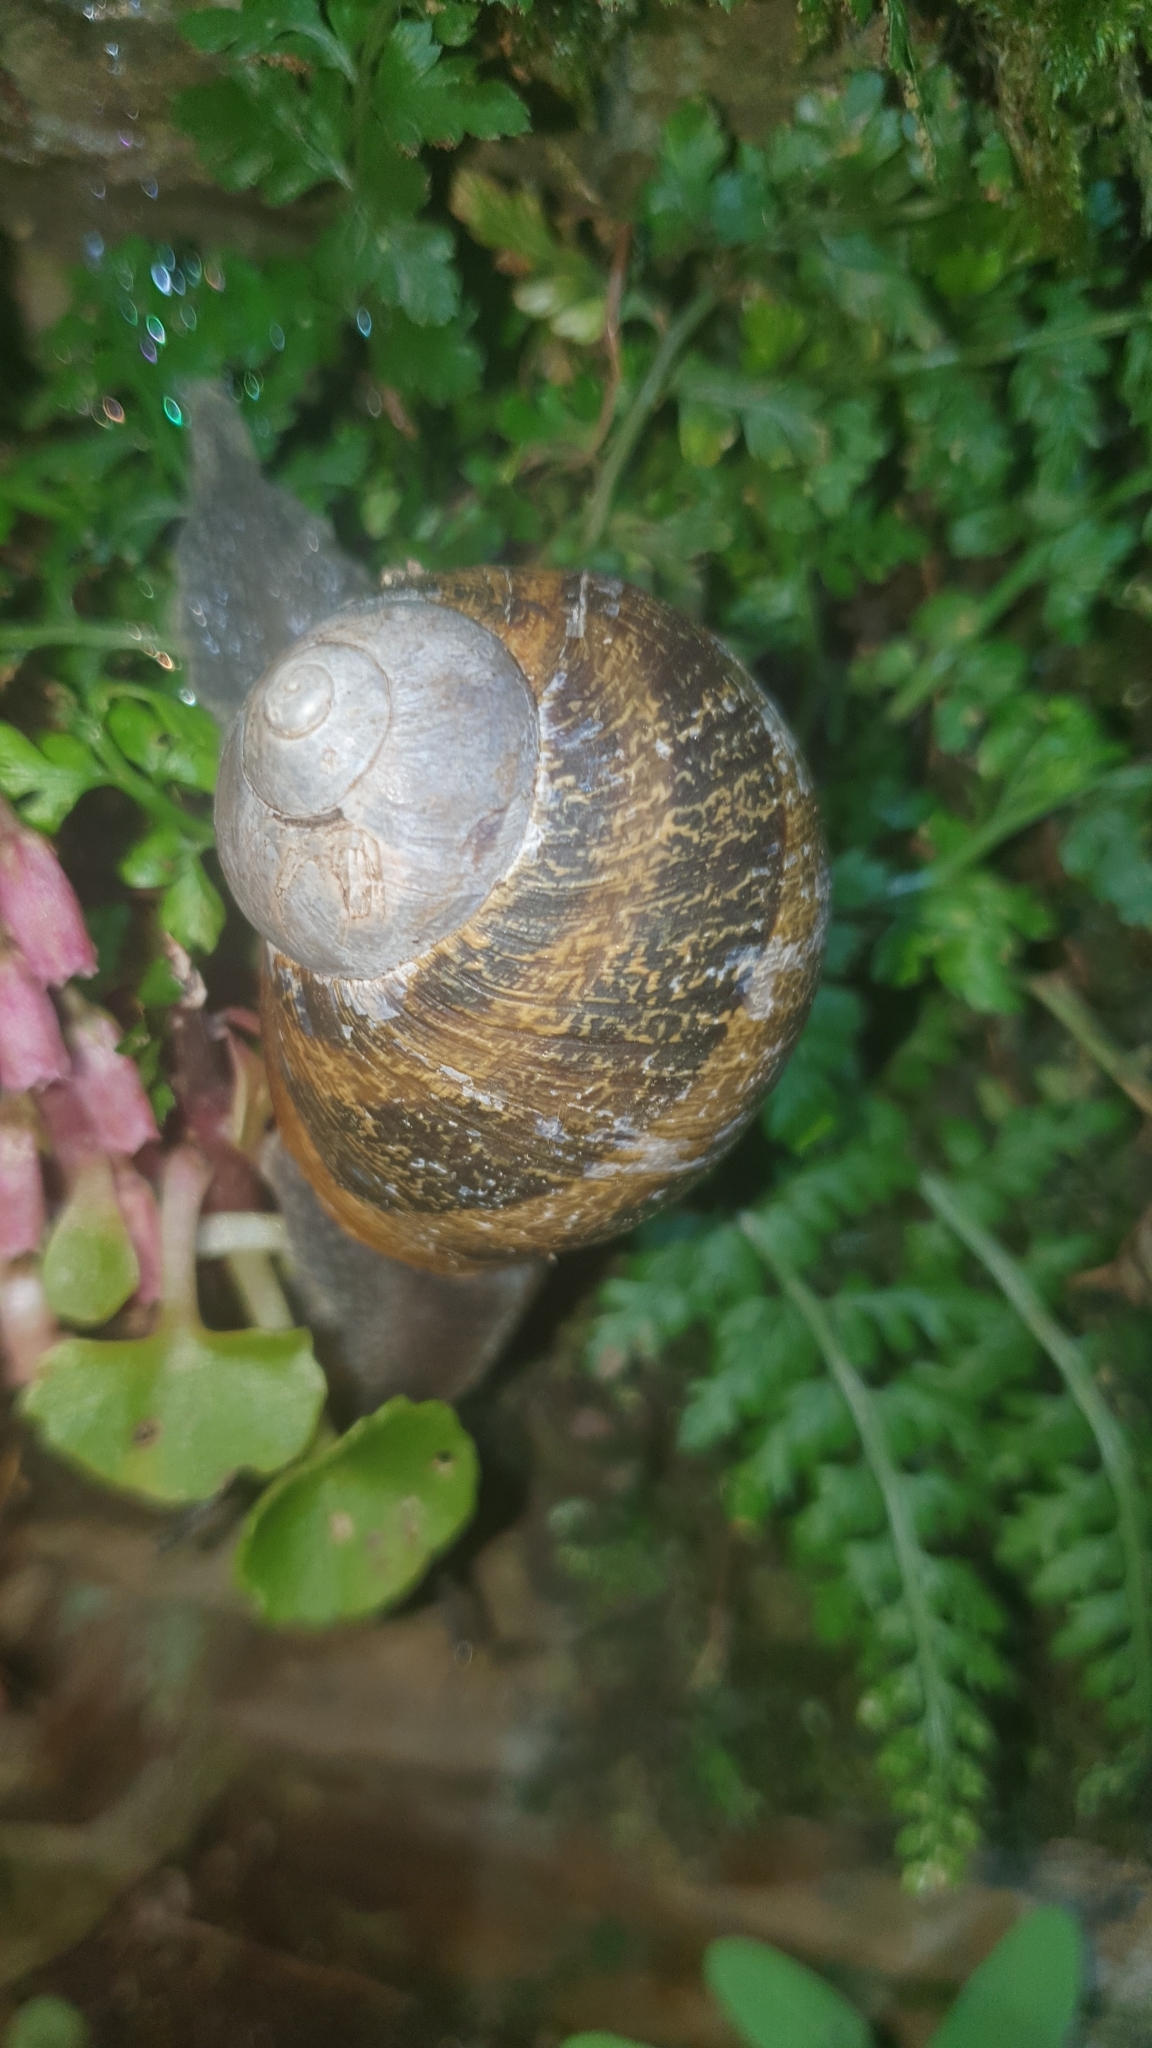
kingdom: Animalia
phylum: Mollusca
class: Gastropoda
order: Stylommatophora
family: Helicidae
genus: Cornu
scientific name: Cornu aspersum
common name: Brown garden snail
